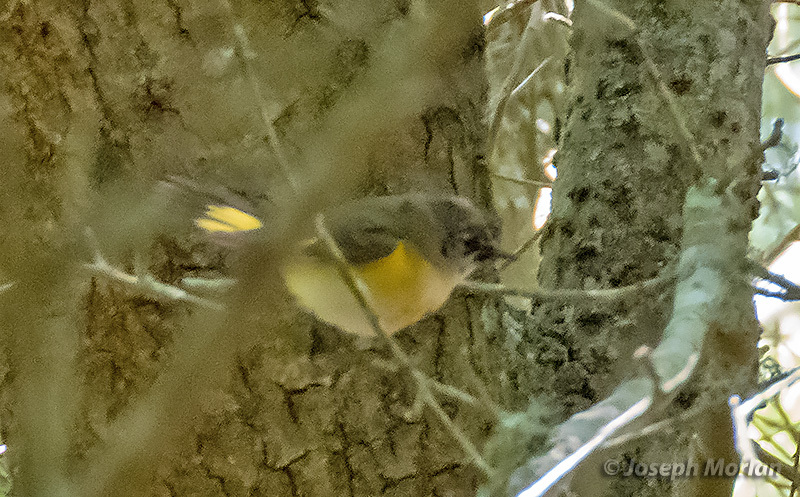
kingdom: Animalia
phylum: Chordata
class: Aves
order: Passeriformes
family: Parulidae
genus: Setophaga
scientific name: Setophaga ruticilla
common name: American redstart
